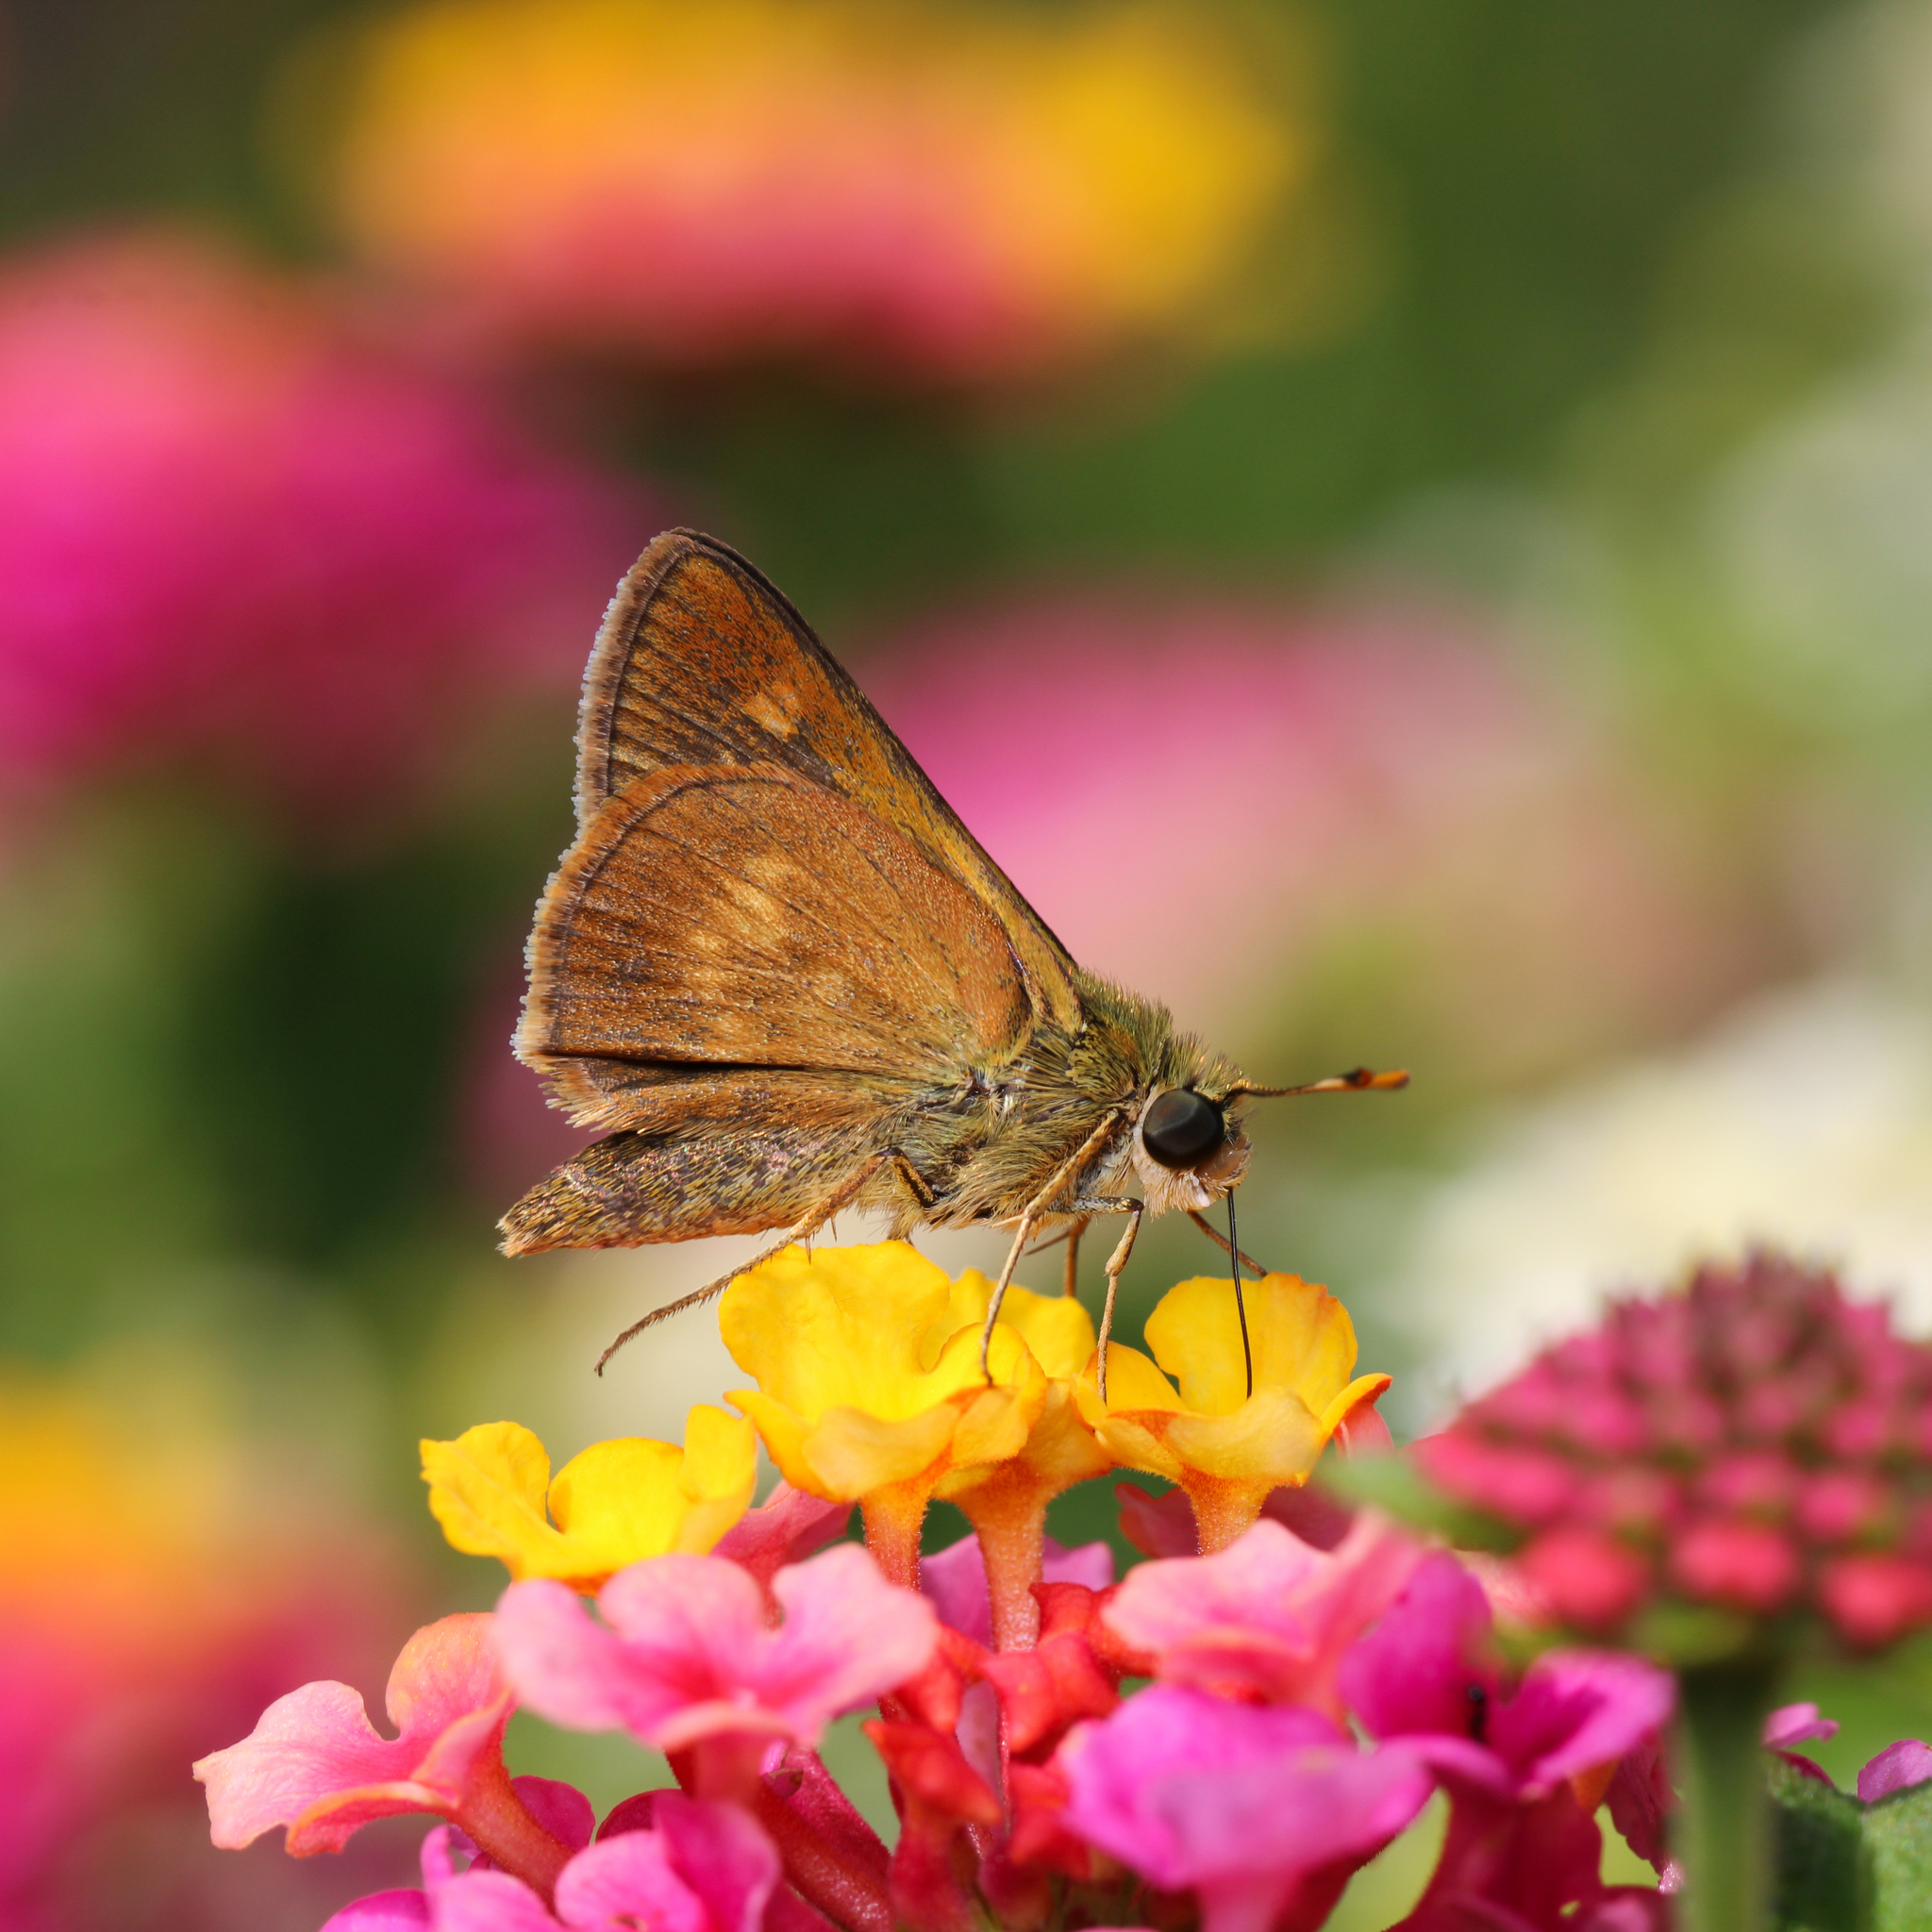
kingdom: Animalia
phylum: Arthropoda
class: Insecta
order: Lepidoptera
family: Hesperiidae
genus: Polites
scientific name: Polites otho
